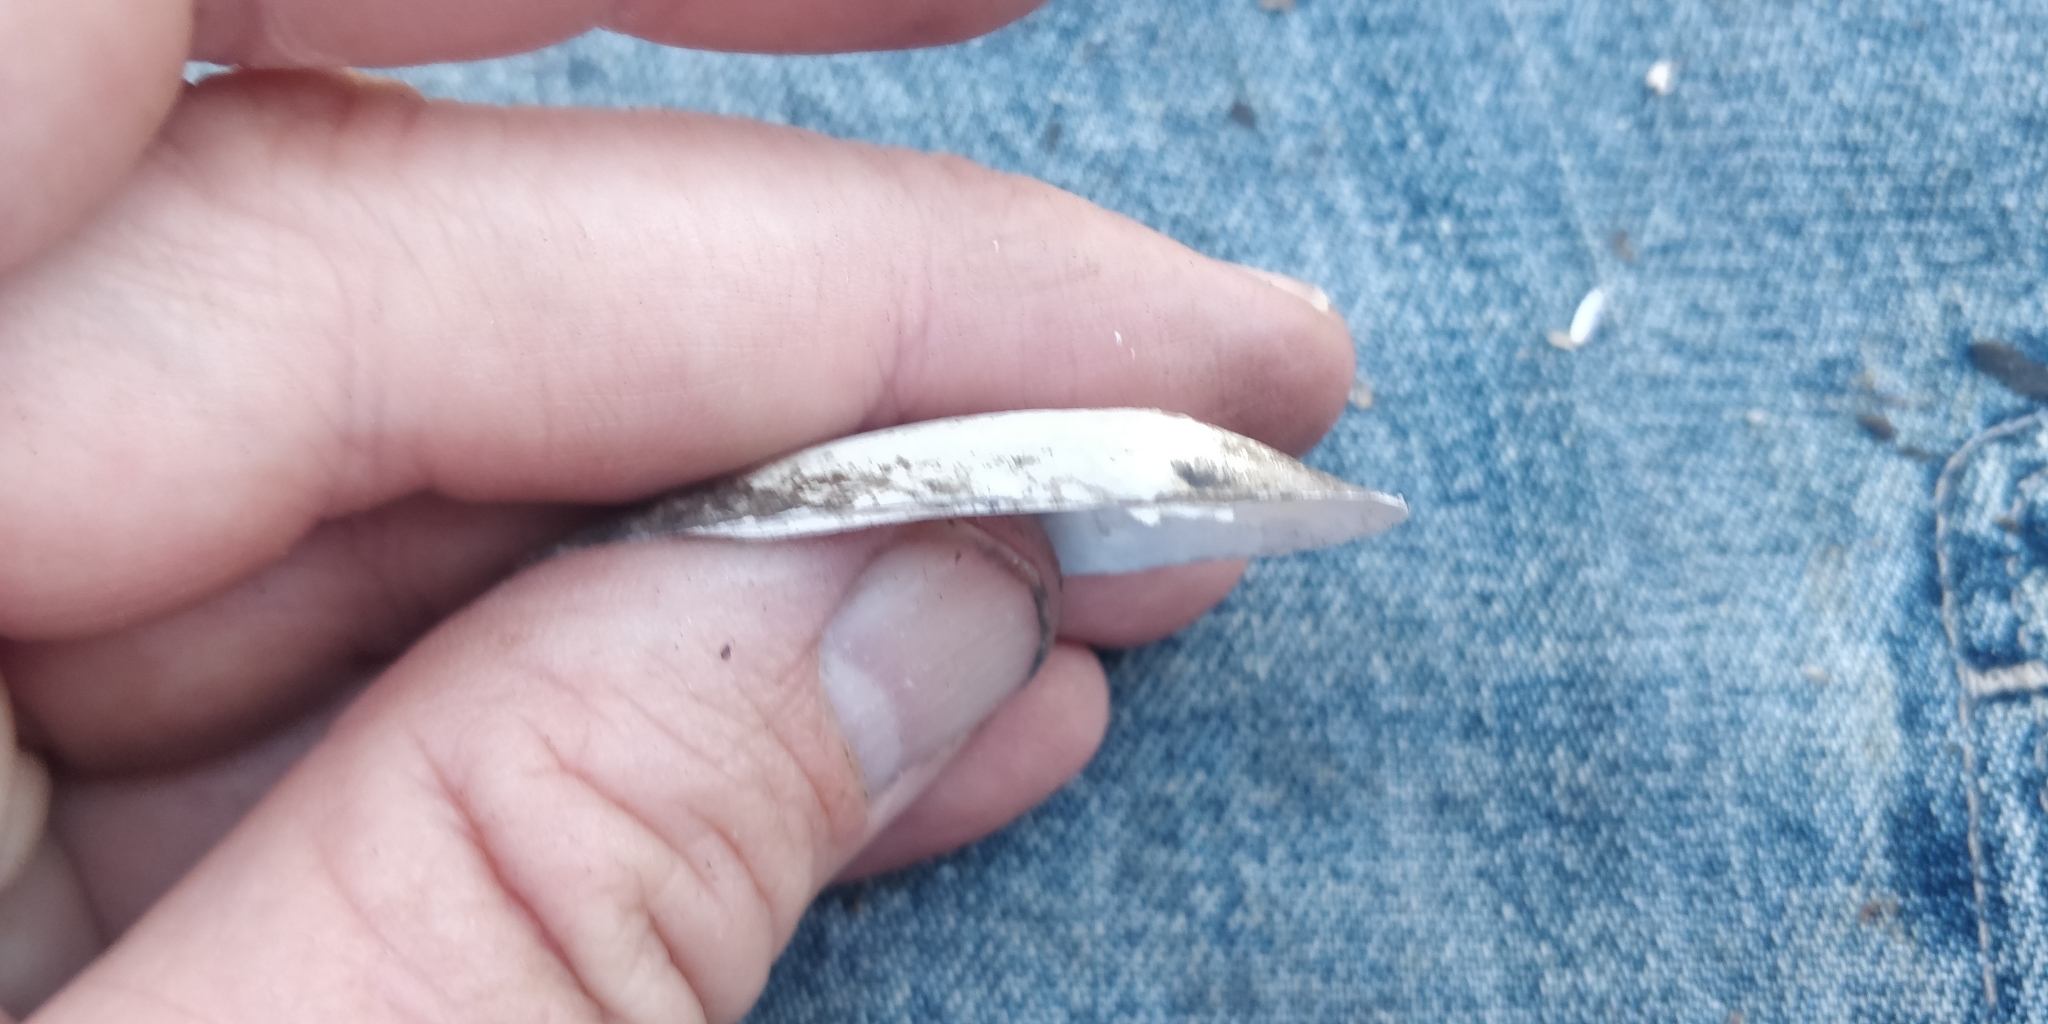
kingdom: Animalia
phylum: Mollusca
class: Bivalvia
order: Unionida
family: Unionidae
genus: Lampsilis
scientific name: Lampsilis teres
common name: Yellow sandshell
